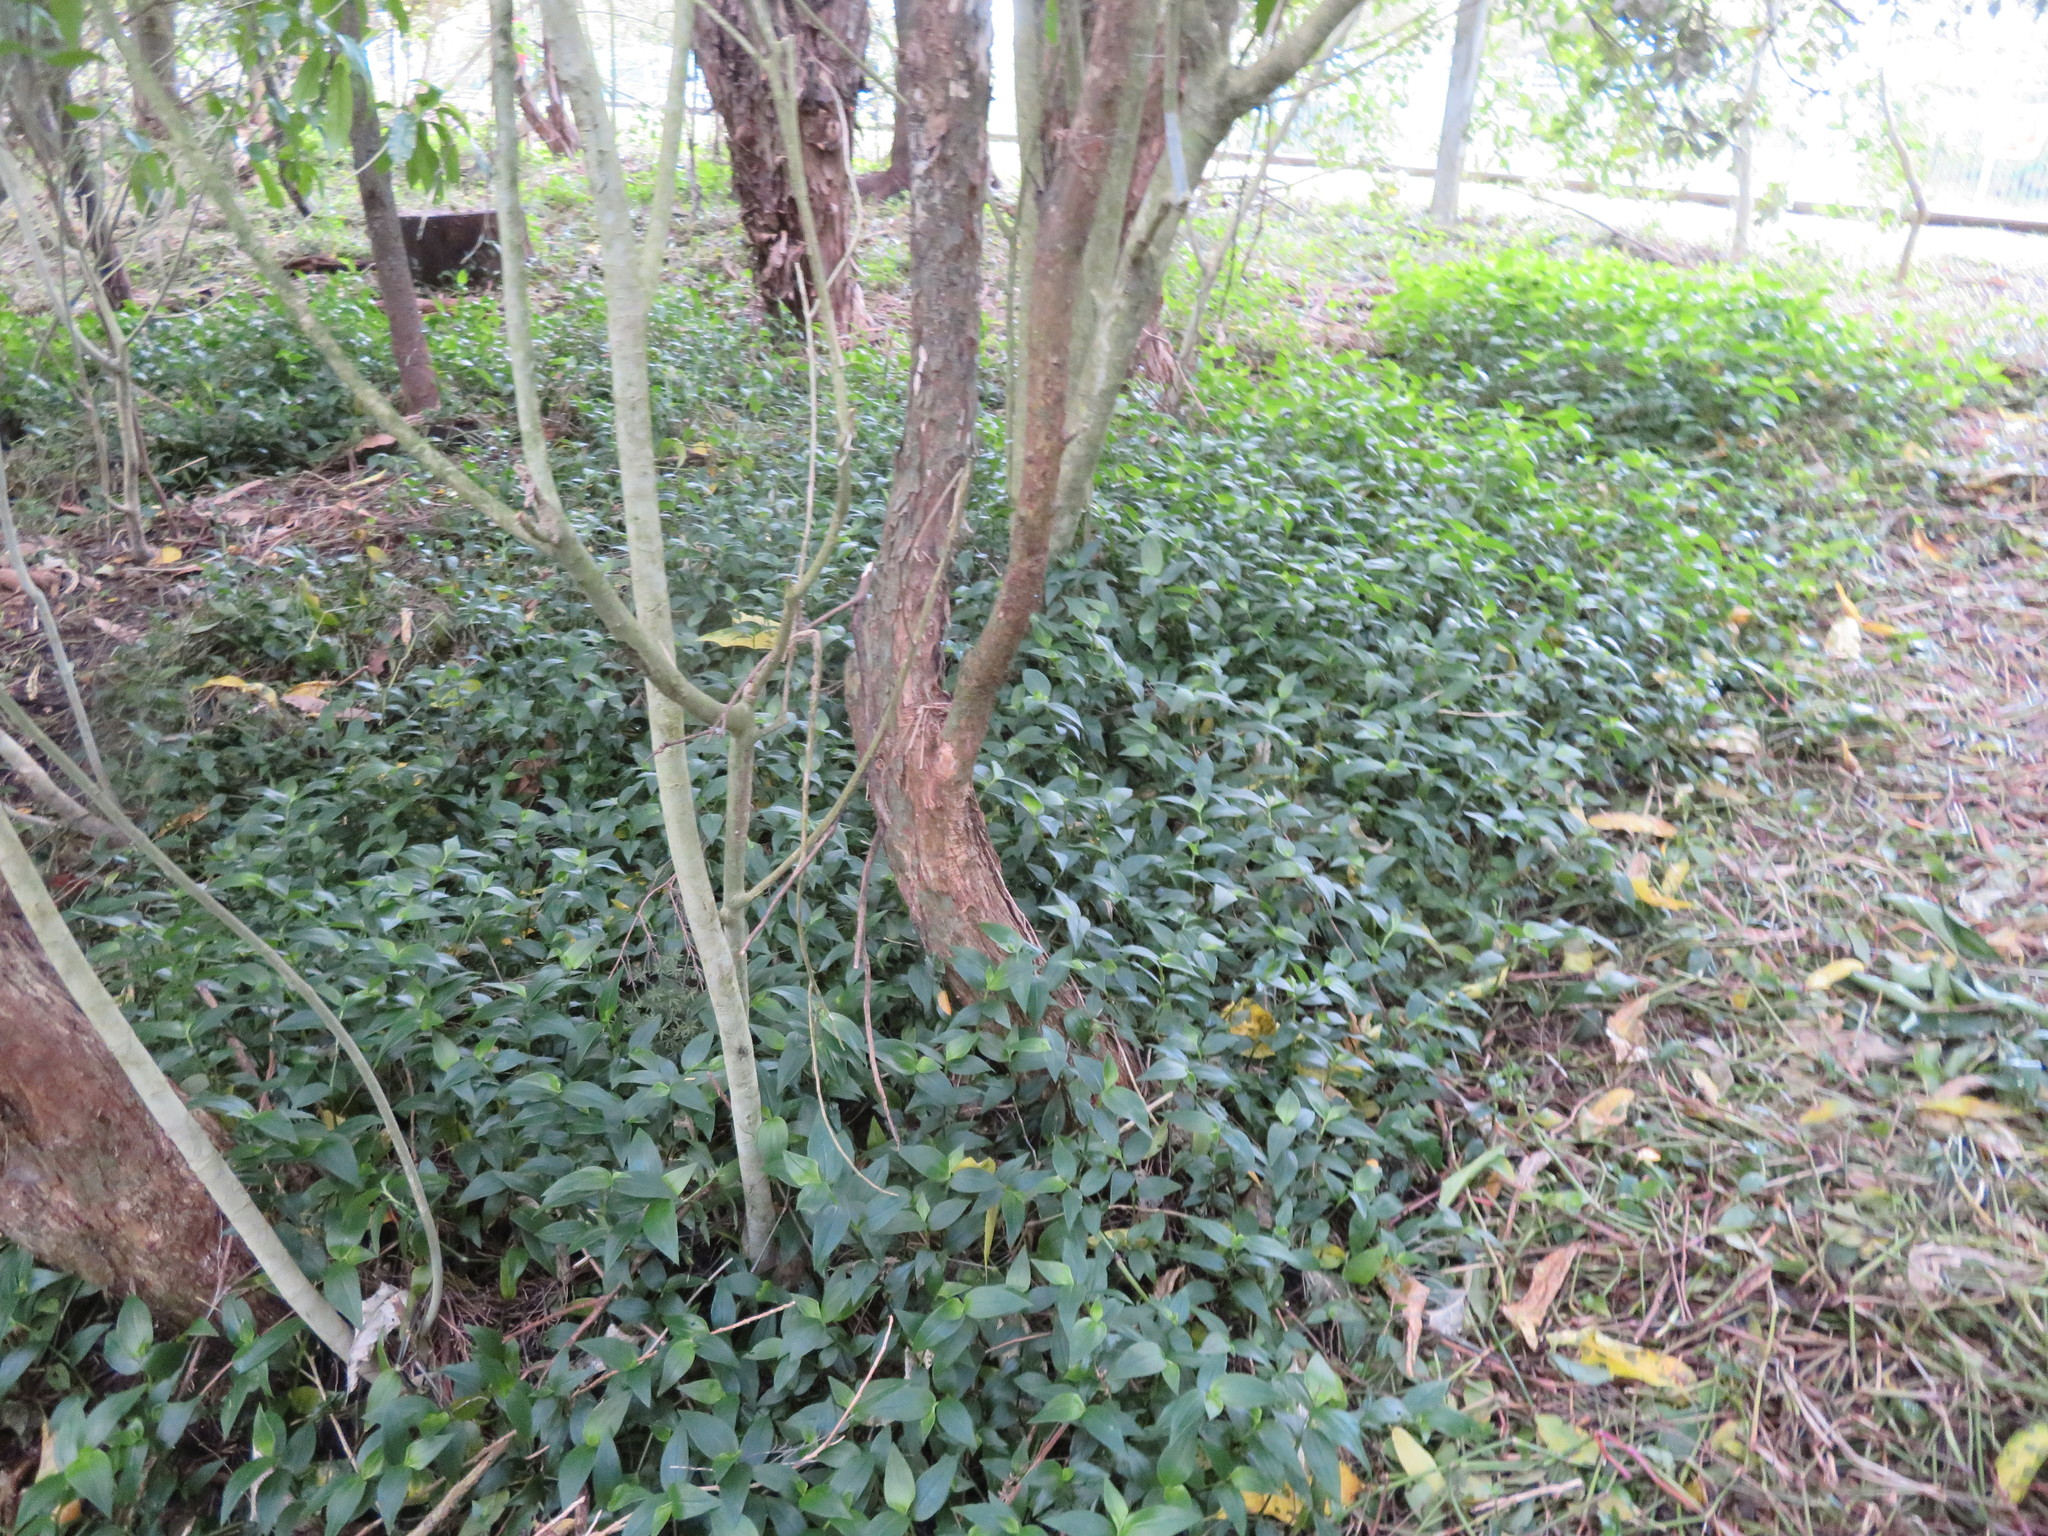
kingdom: Plantae
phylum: Tracheophyta
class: Liliopsida
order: Commelinales
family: Commelinaceae
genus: Tradescantia
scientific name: Tradescantia fluminensis
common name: Wandering-jew
